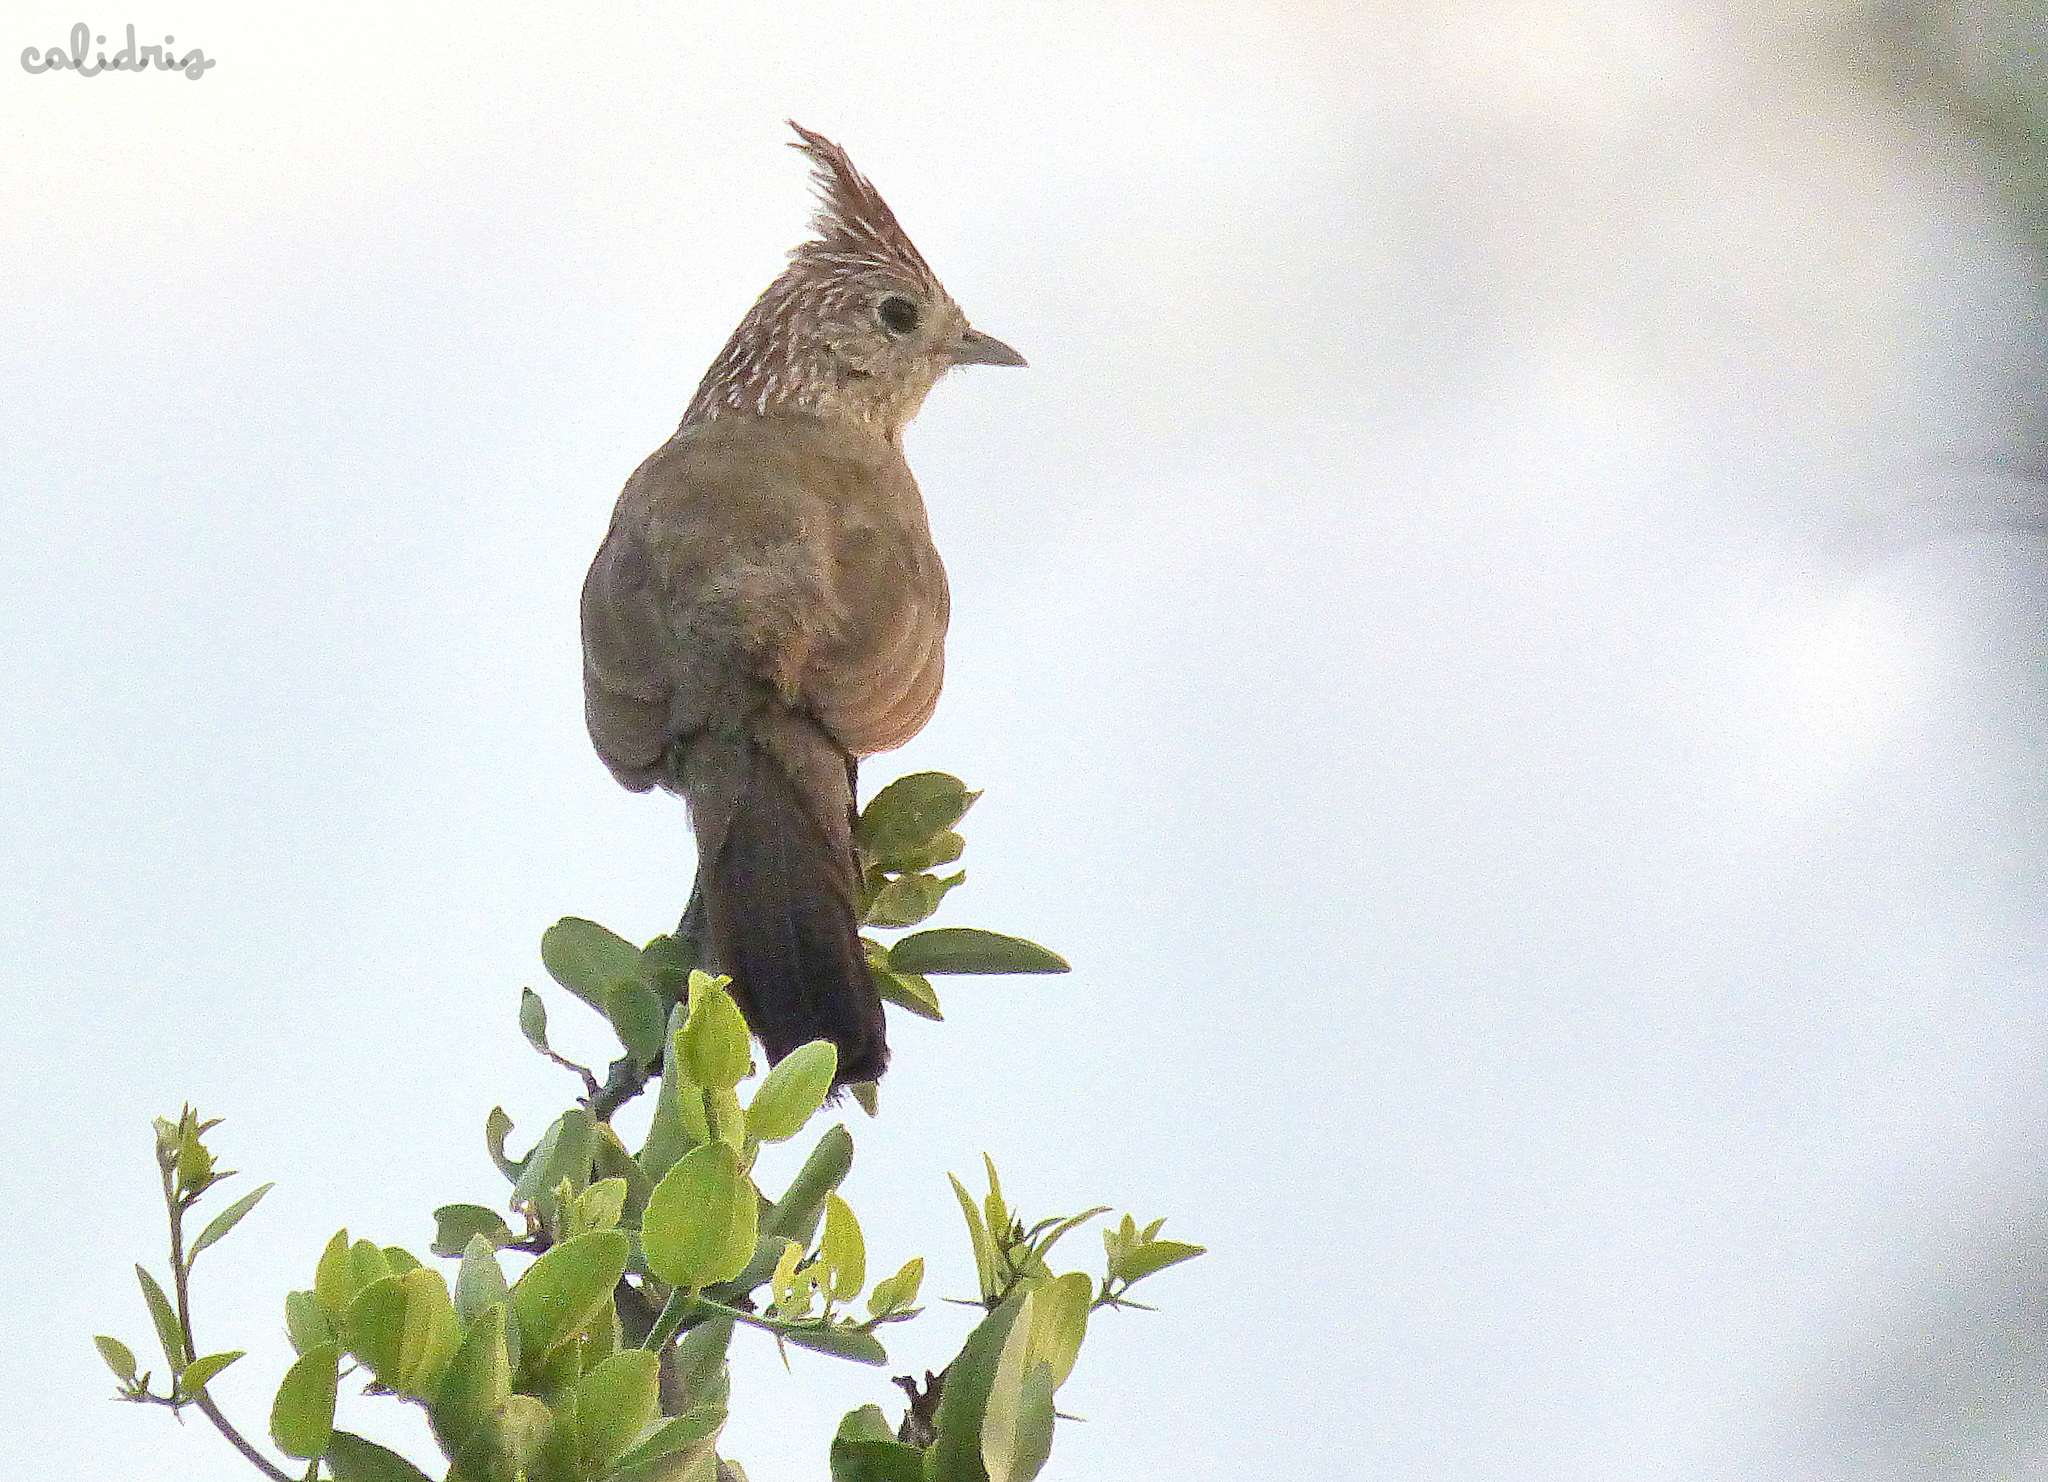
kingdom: Animalia
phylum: Chordata
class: Aves
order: Passeriformes
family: Rhinocryptidae
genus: Rhinocrypta
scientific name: Rhinocrypta lanceolata
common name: Crested gallito
